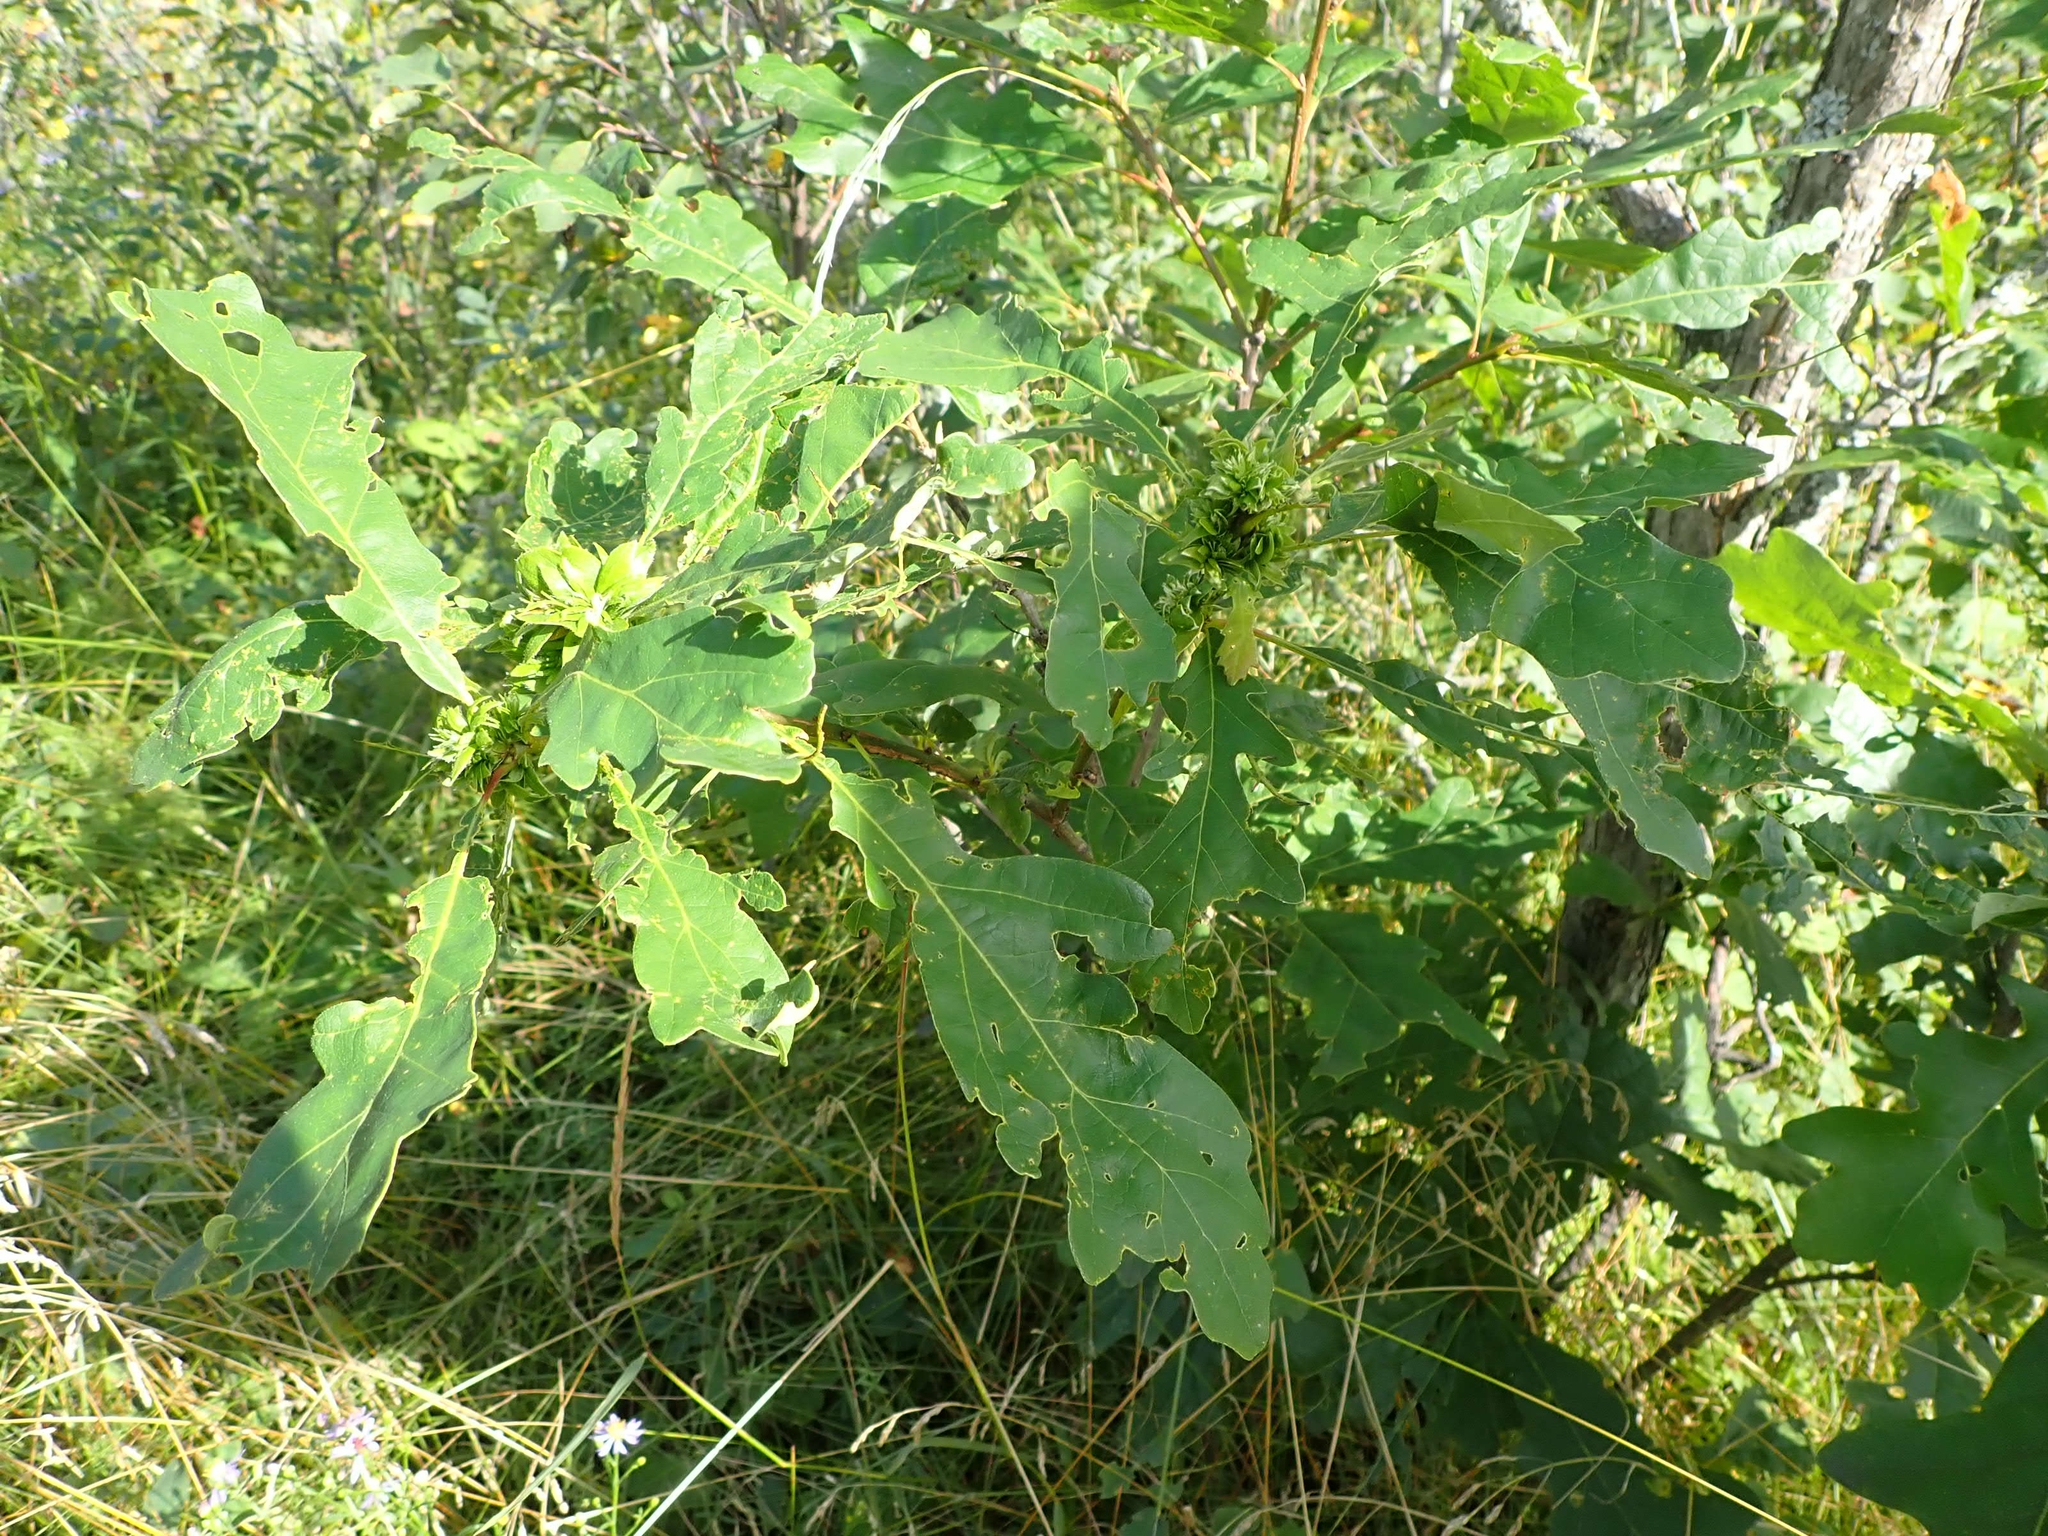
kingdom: Plantae
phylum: Tracheophyta
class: Magnoliopsida
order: Fagales
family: Fagaceae
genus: Quercus
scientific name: Quercus macrocarpa
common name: Bur oak
